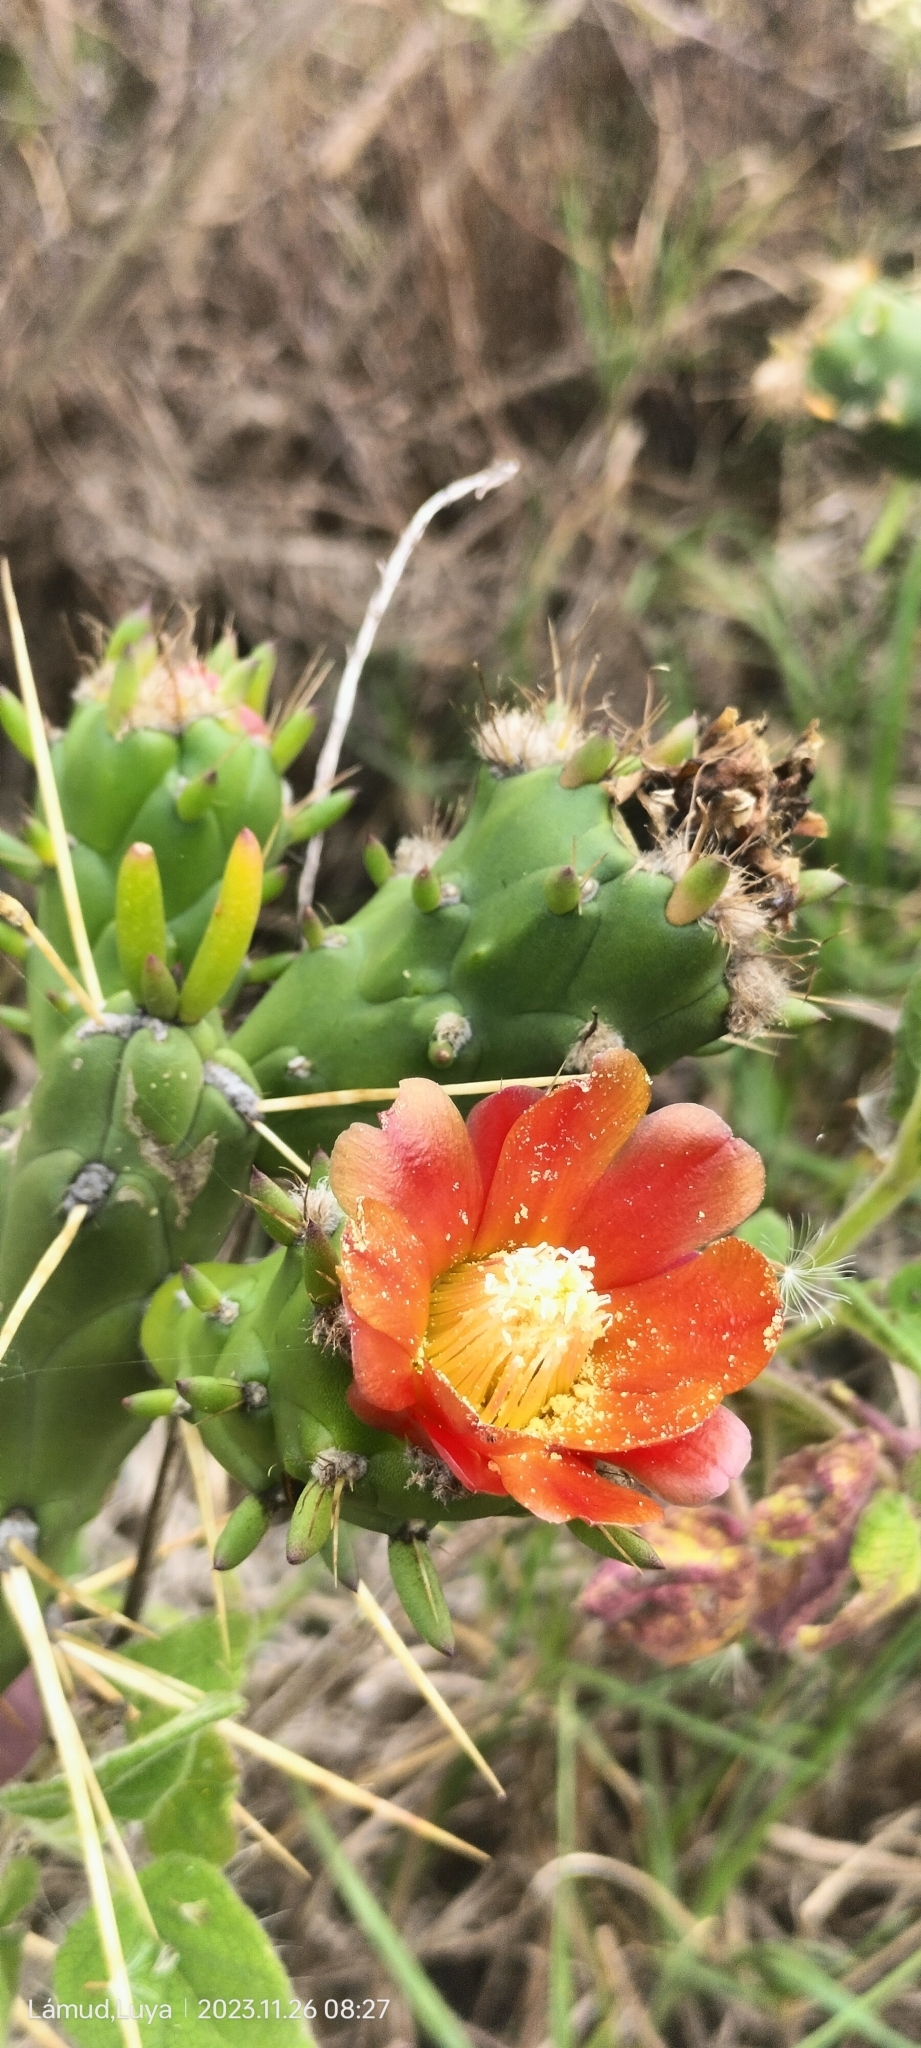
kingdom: Plantae
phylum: Tracheophyta
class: Magnoliopsida
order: Caryophyllales
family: Cactaceae
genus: Austrocylindropuntia
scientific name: Austrocylindropuntia subulata
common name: Eve's needle cactus
